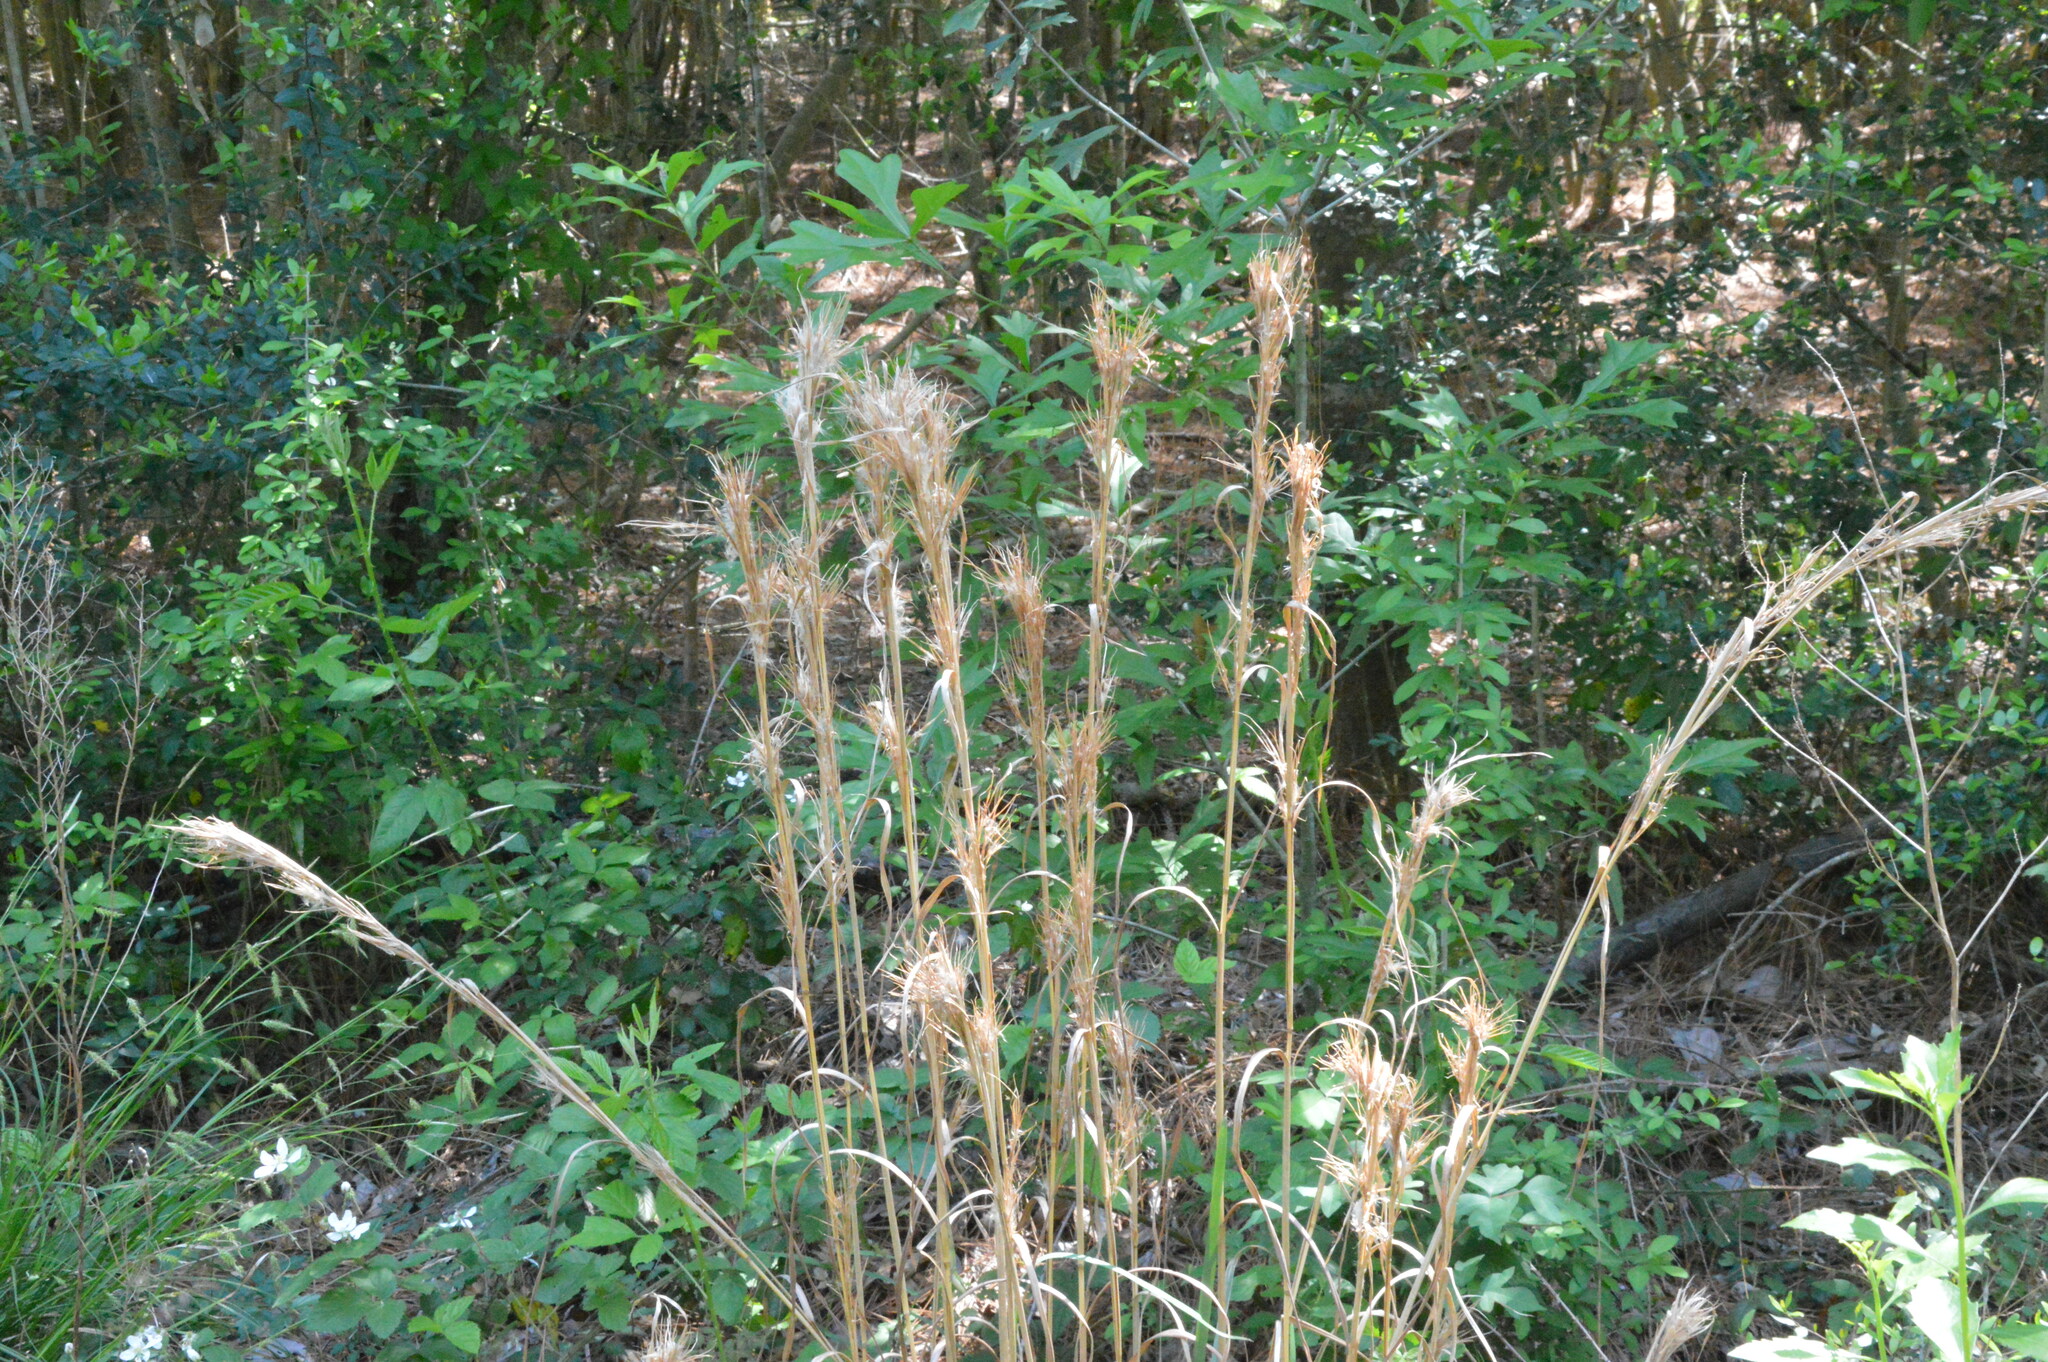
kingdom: Plantae
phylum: Tracheophyta
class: Liliopsida
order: Poales
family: Poaceae
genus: Andropogon
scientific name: Andropogon tenuispatheus
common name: Bushy bluestem
